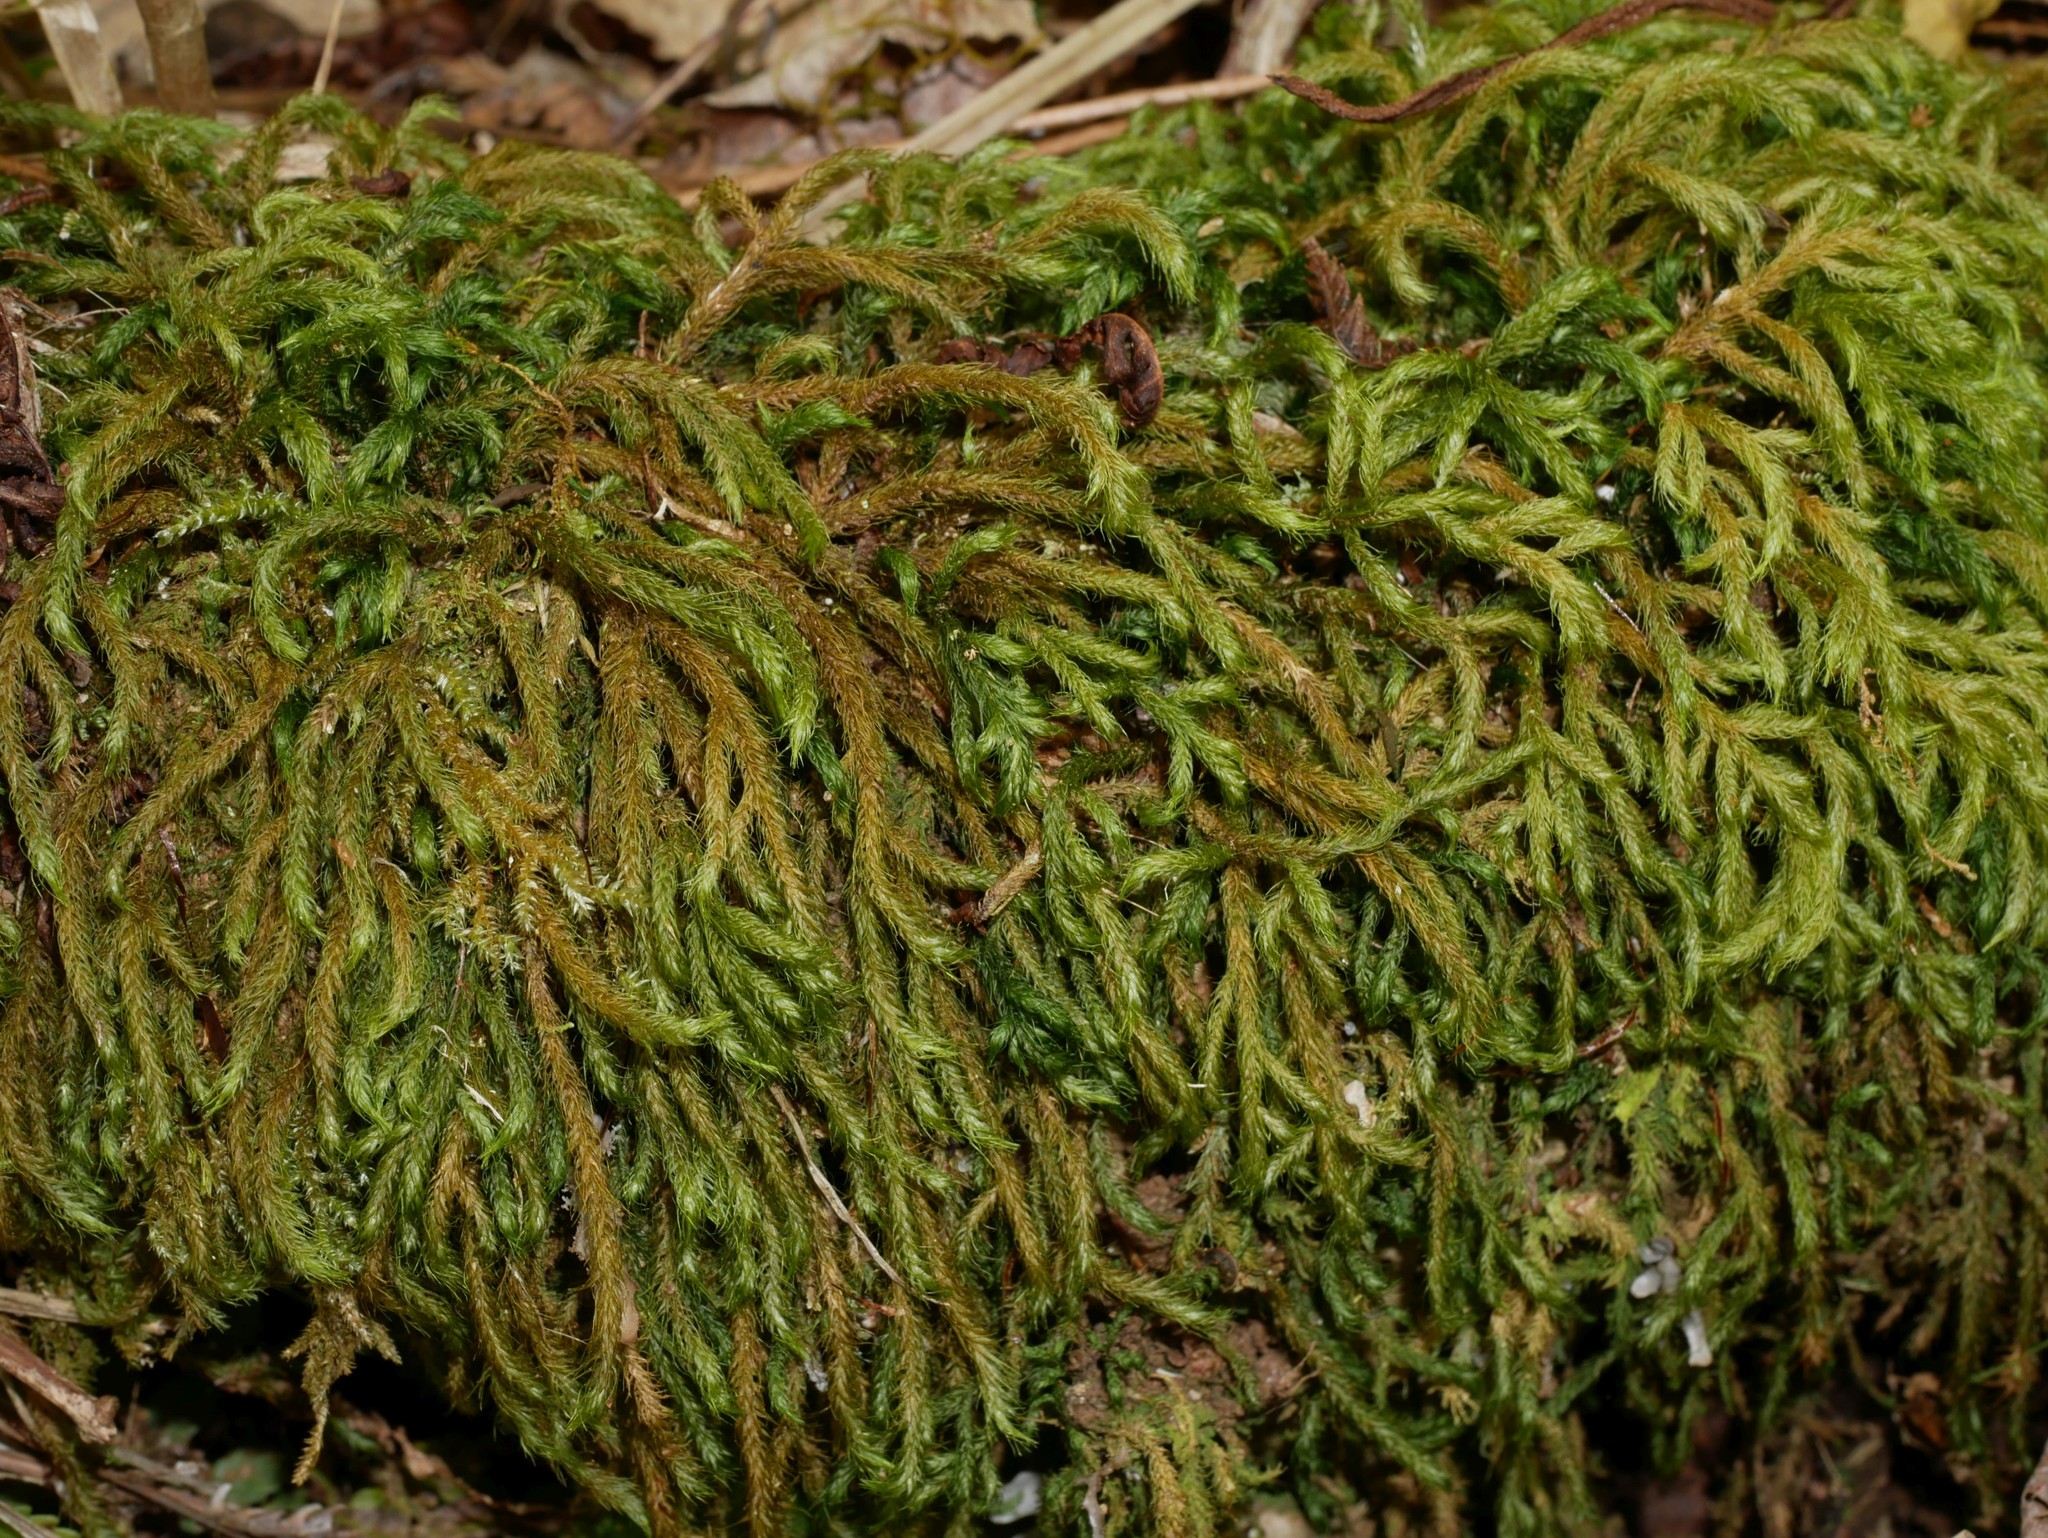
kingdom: Plantae
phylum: Bryophyta
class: Bryopsida
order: Hypnales
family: Neckeraceae
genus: Echinodiopsis
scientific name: Echinodiopsis hispida
